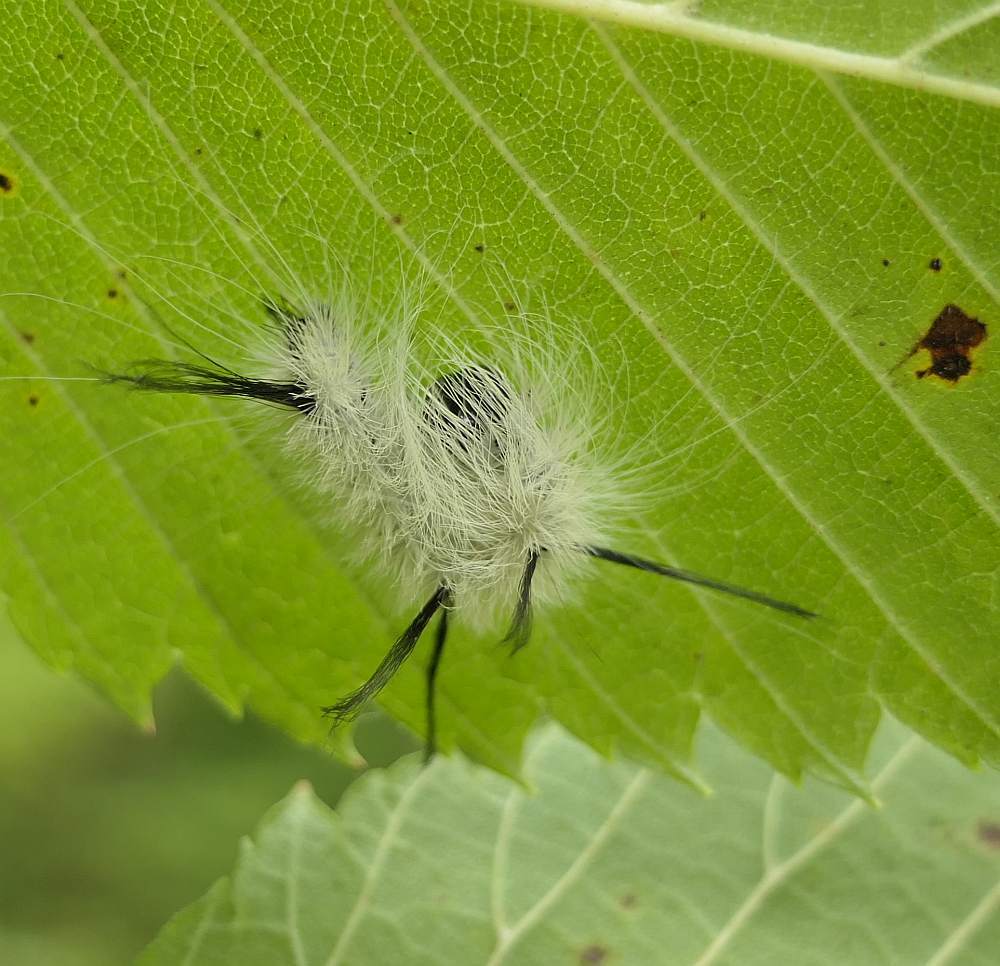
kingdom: Animalia
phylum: Arthropoda
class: Insecta
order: Lepidoptera
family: Noctuidae
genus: Acronicta
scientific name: Acronicta americana
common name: American dagger
